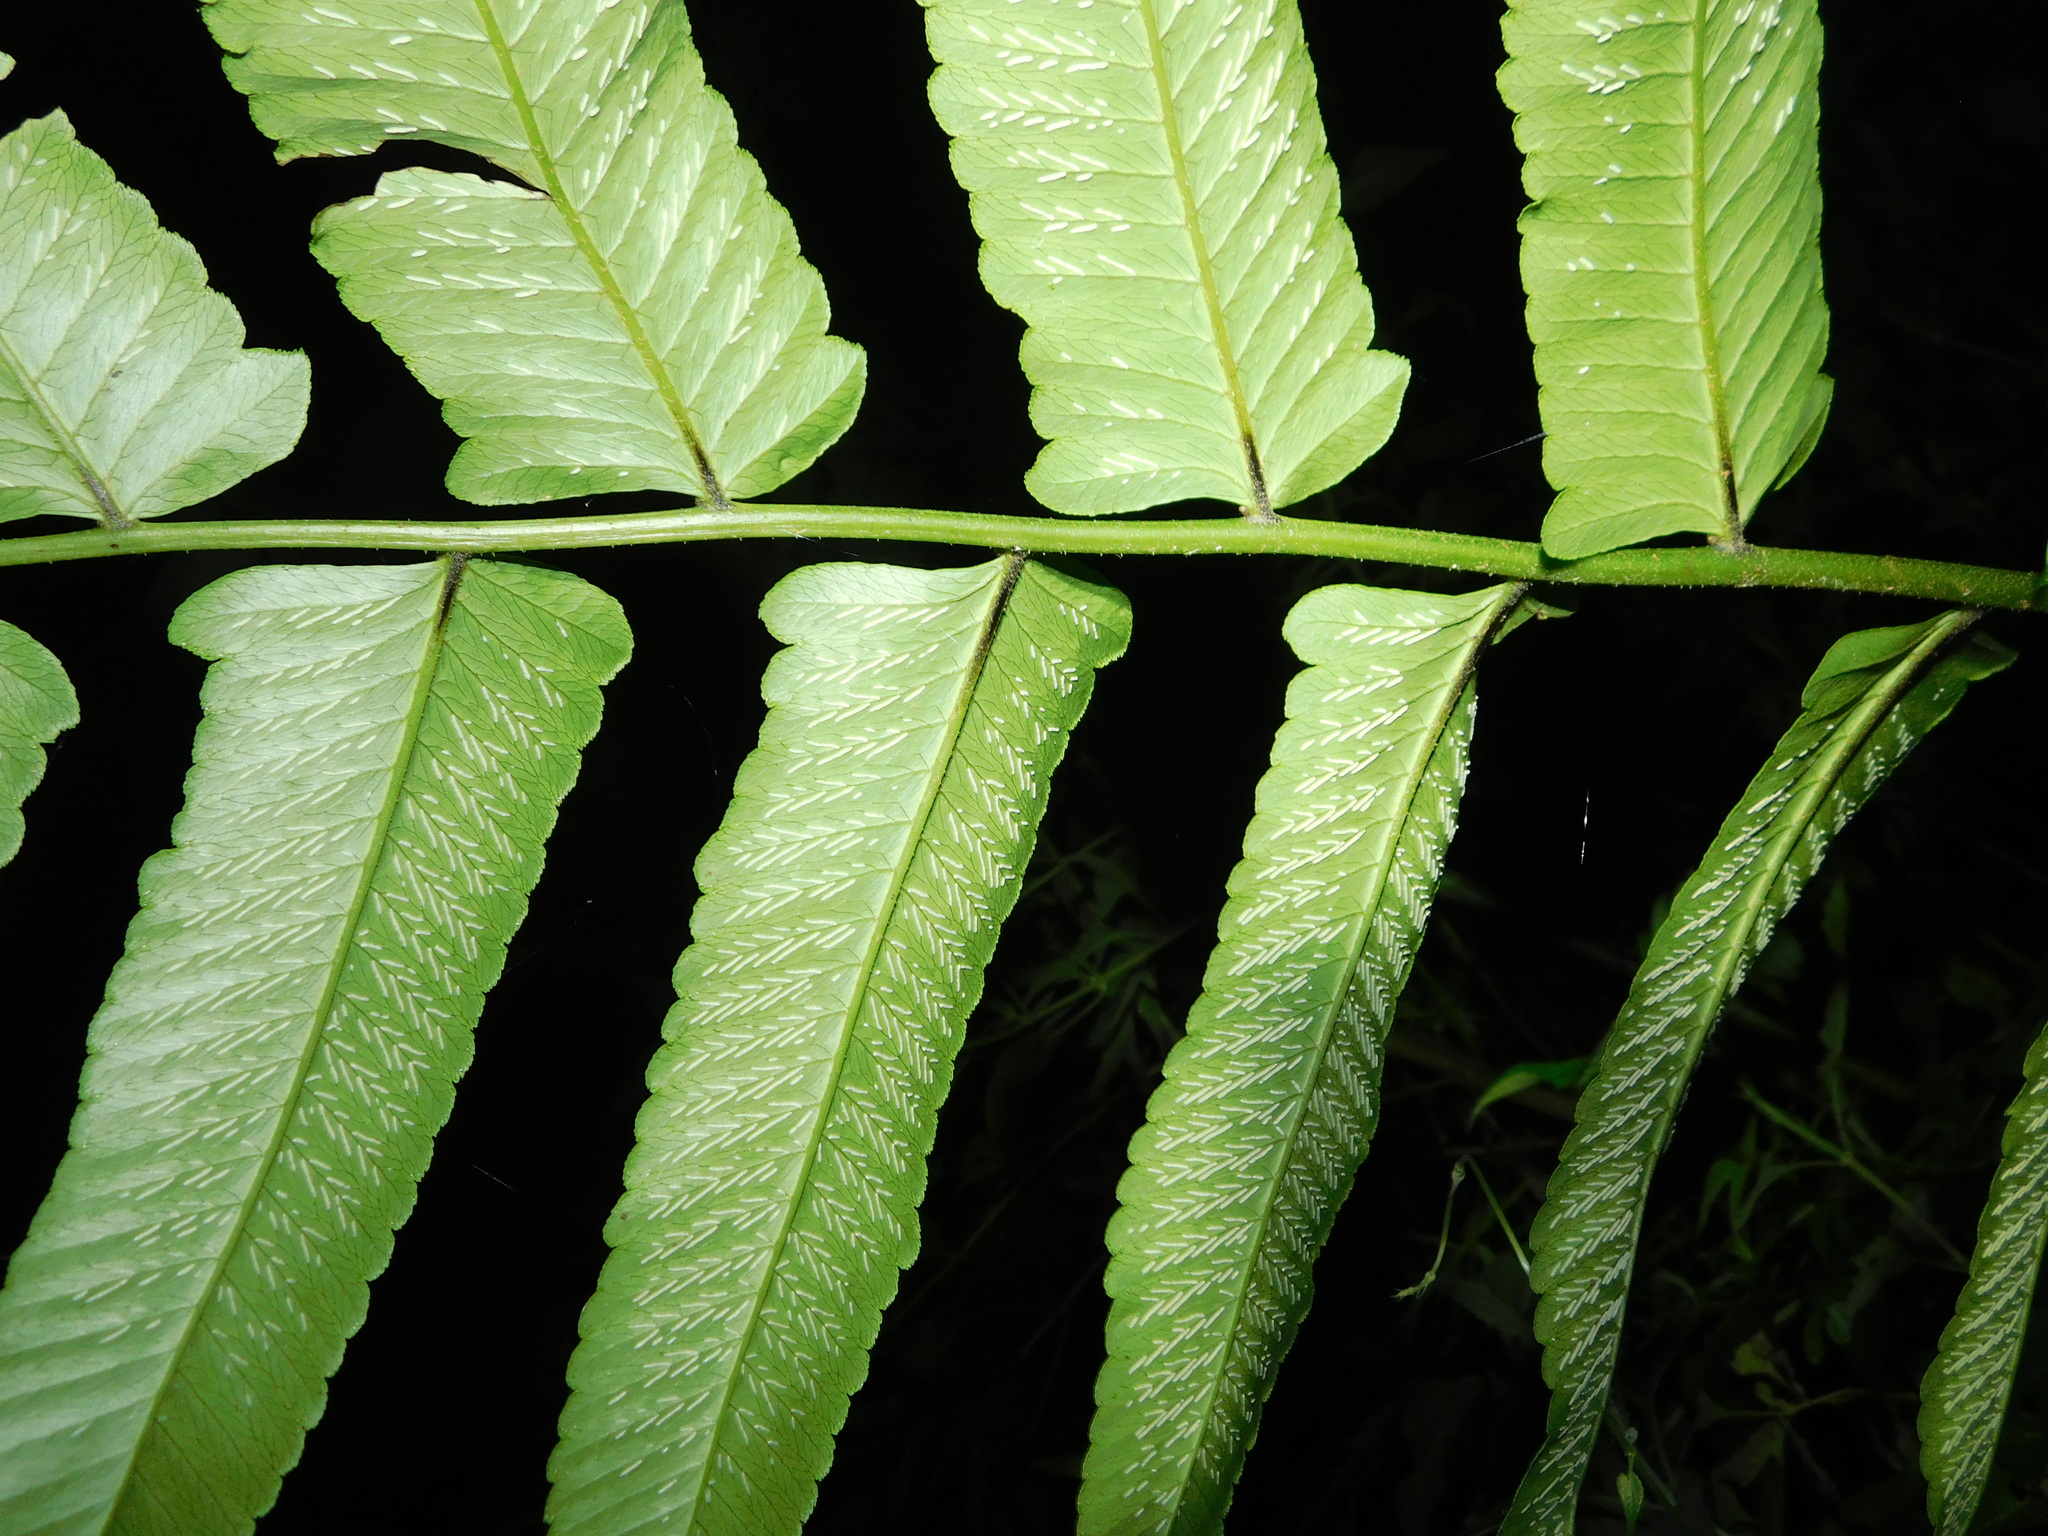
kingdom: Plantae
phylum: Tracheophyta
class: Polypodiopsida
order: Polypodiales
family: Athyriaceae
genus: Diplazium
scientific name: Diplazium proliferum
